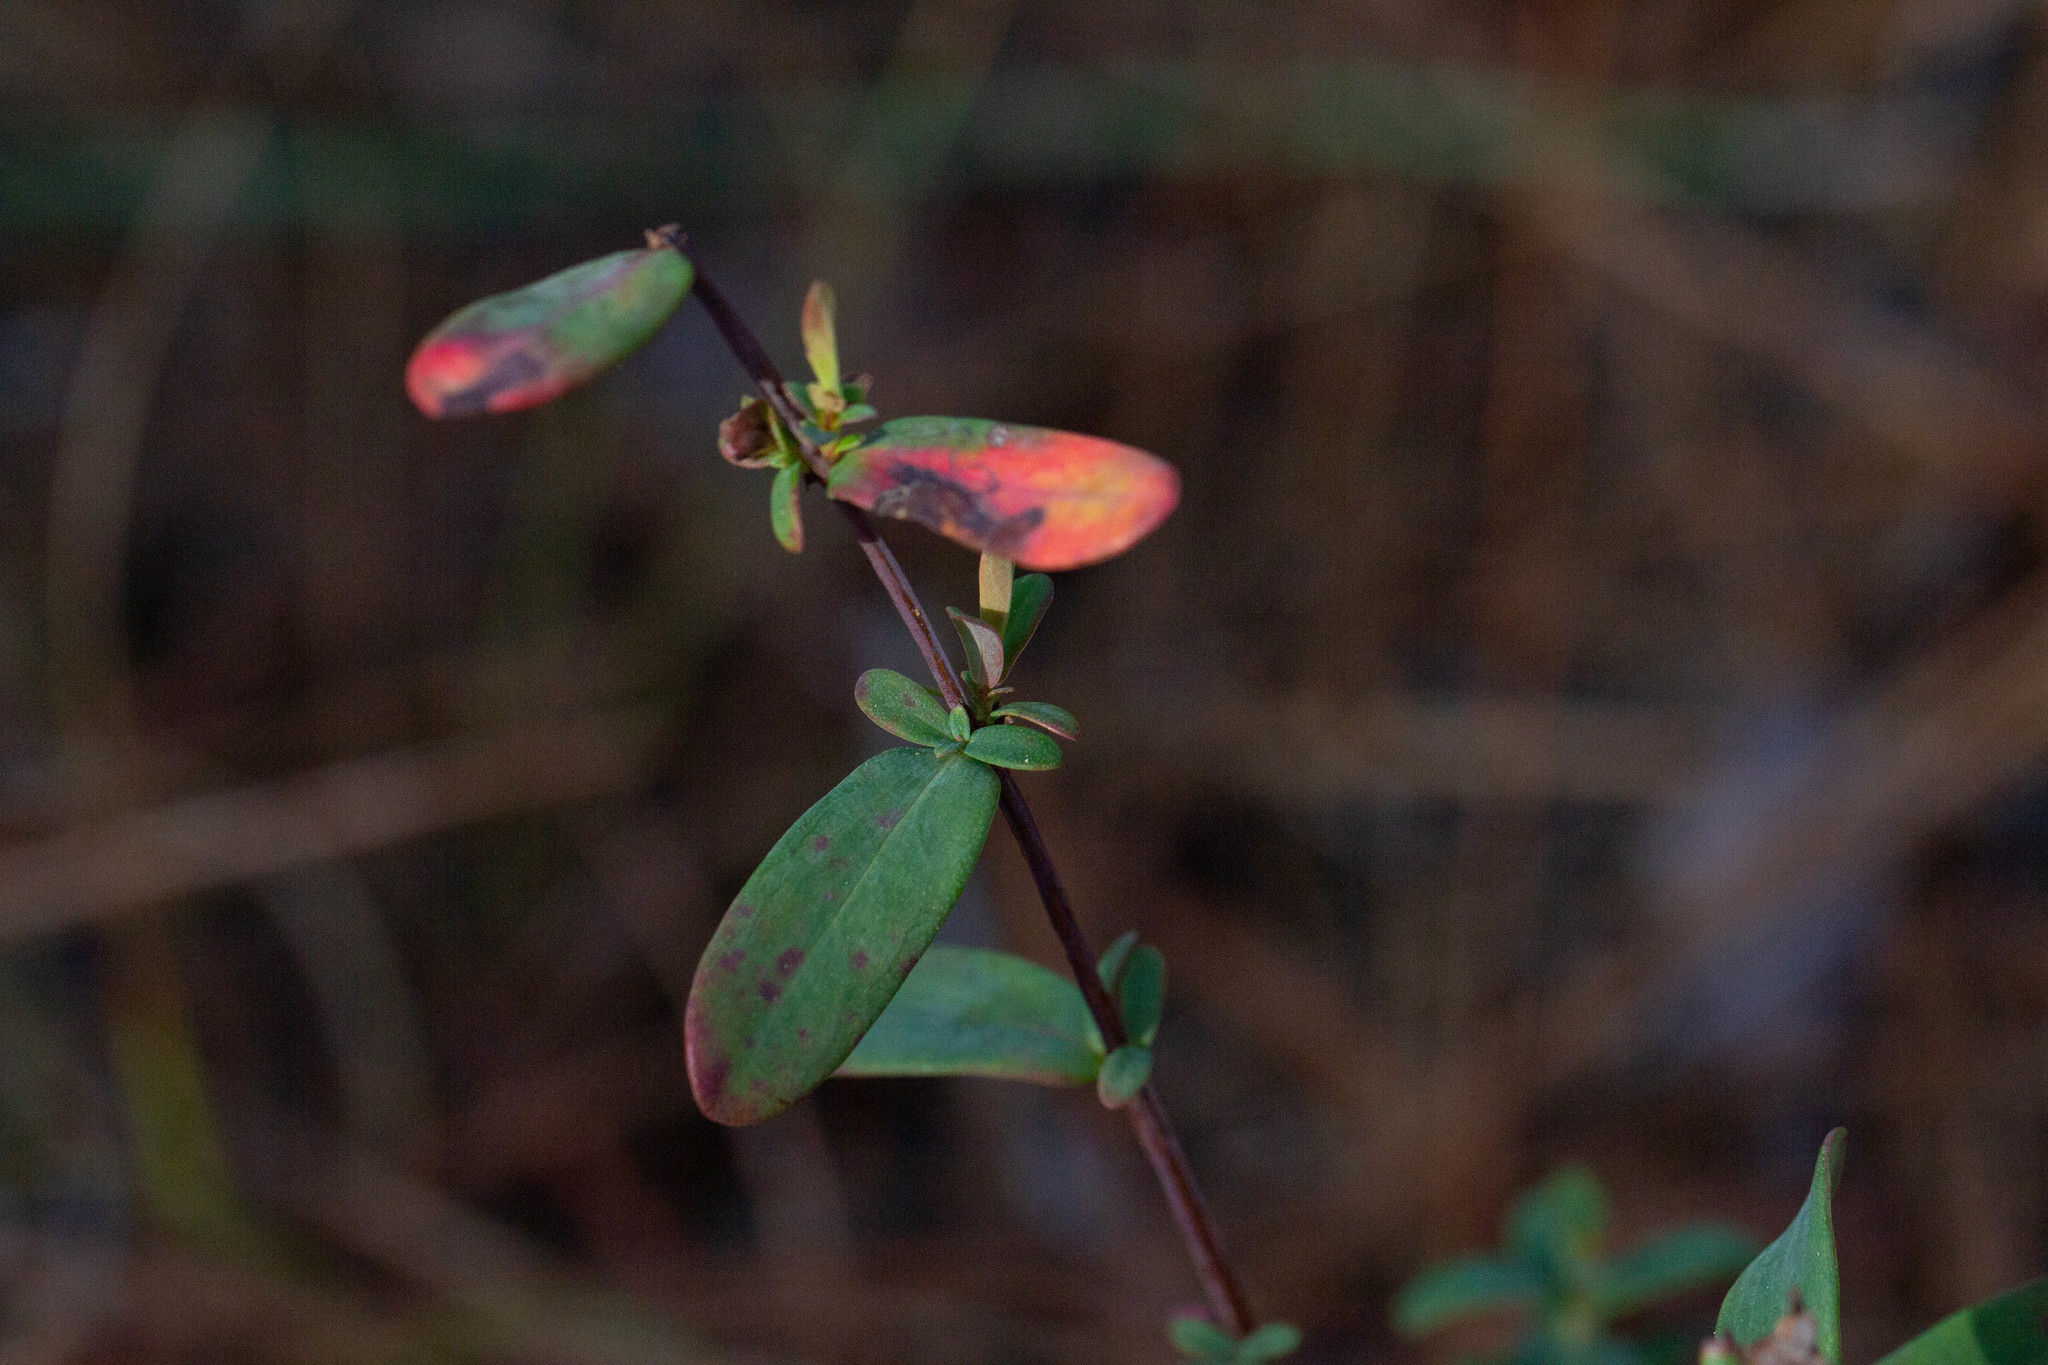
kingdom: Plantae
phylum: Tracheophyta
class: Magnoliopsida
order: Malpighiales
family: Hypericaceae
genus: Hypericum
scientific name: Hypericum crux-andreae
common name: St.-peter's-wort
